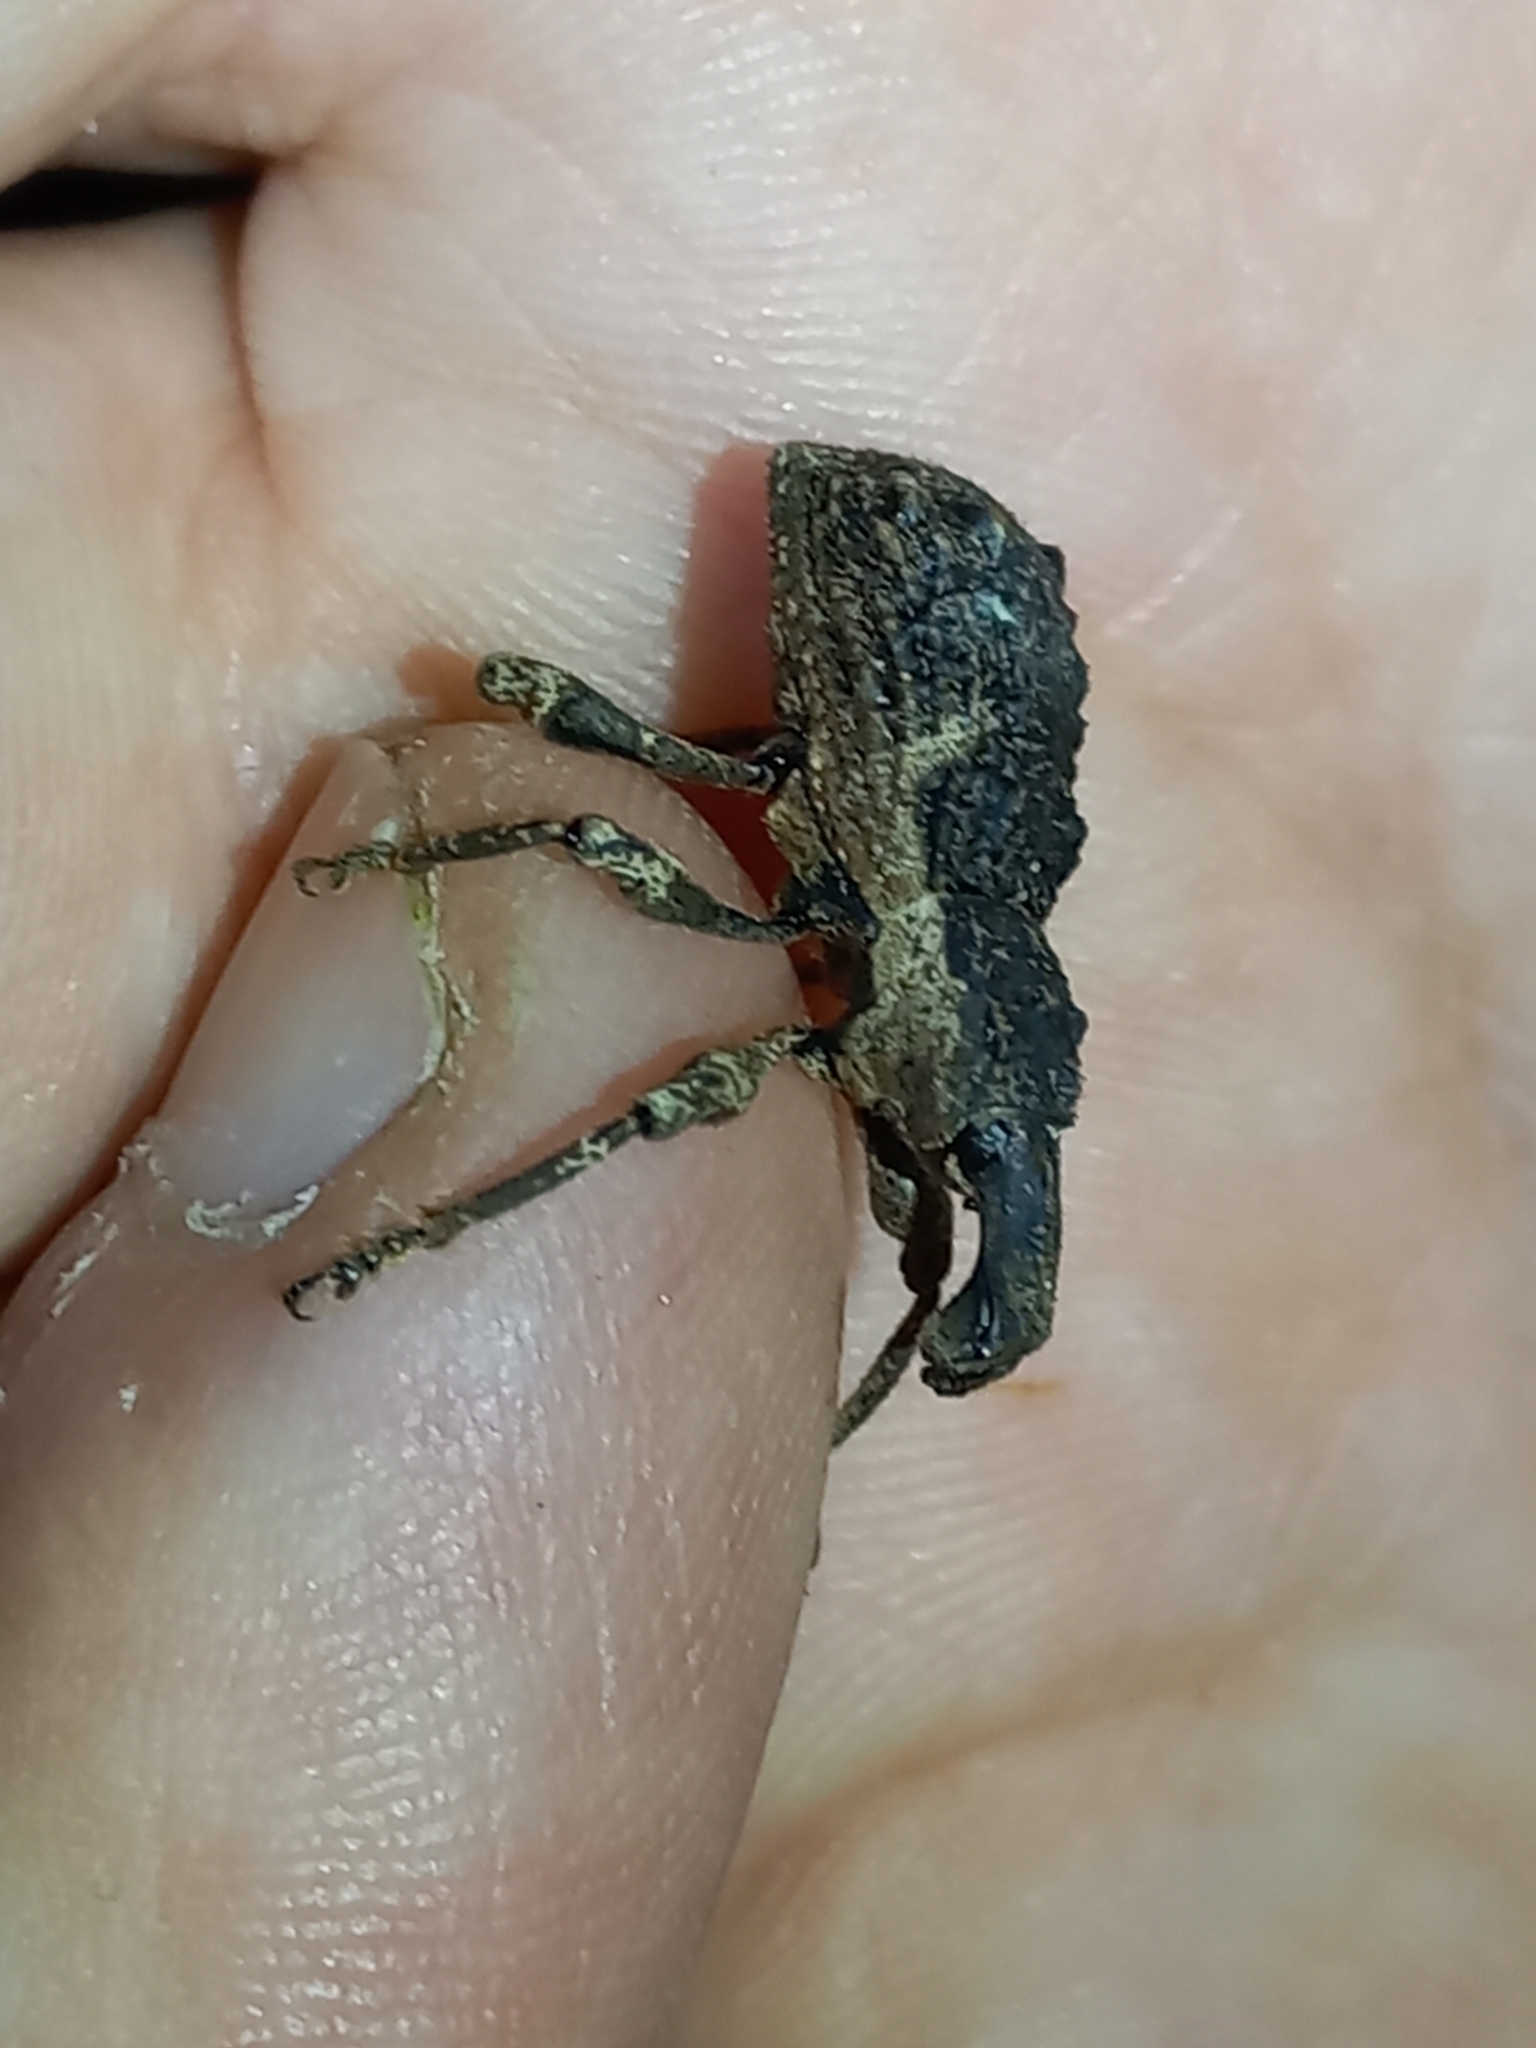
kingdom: Animalia
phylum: Arthropoda
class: Insecta
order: Coleoptera
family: Curculionidae
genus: Anagotus
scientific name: Anagotus rugosus
